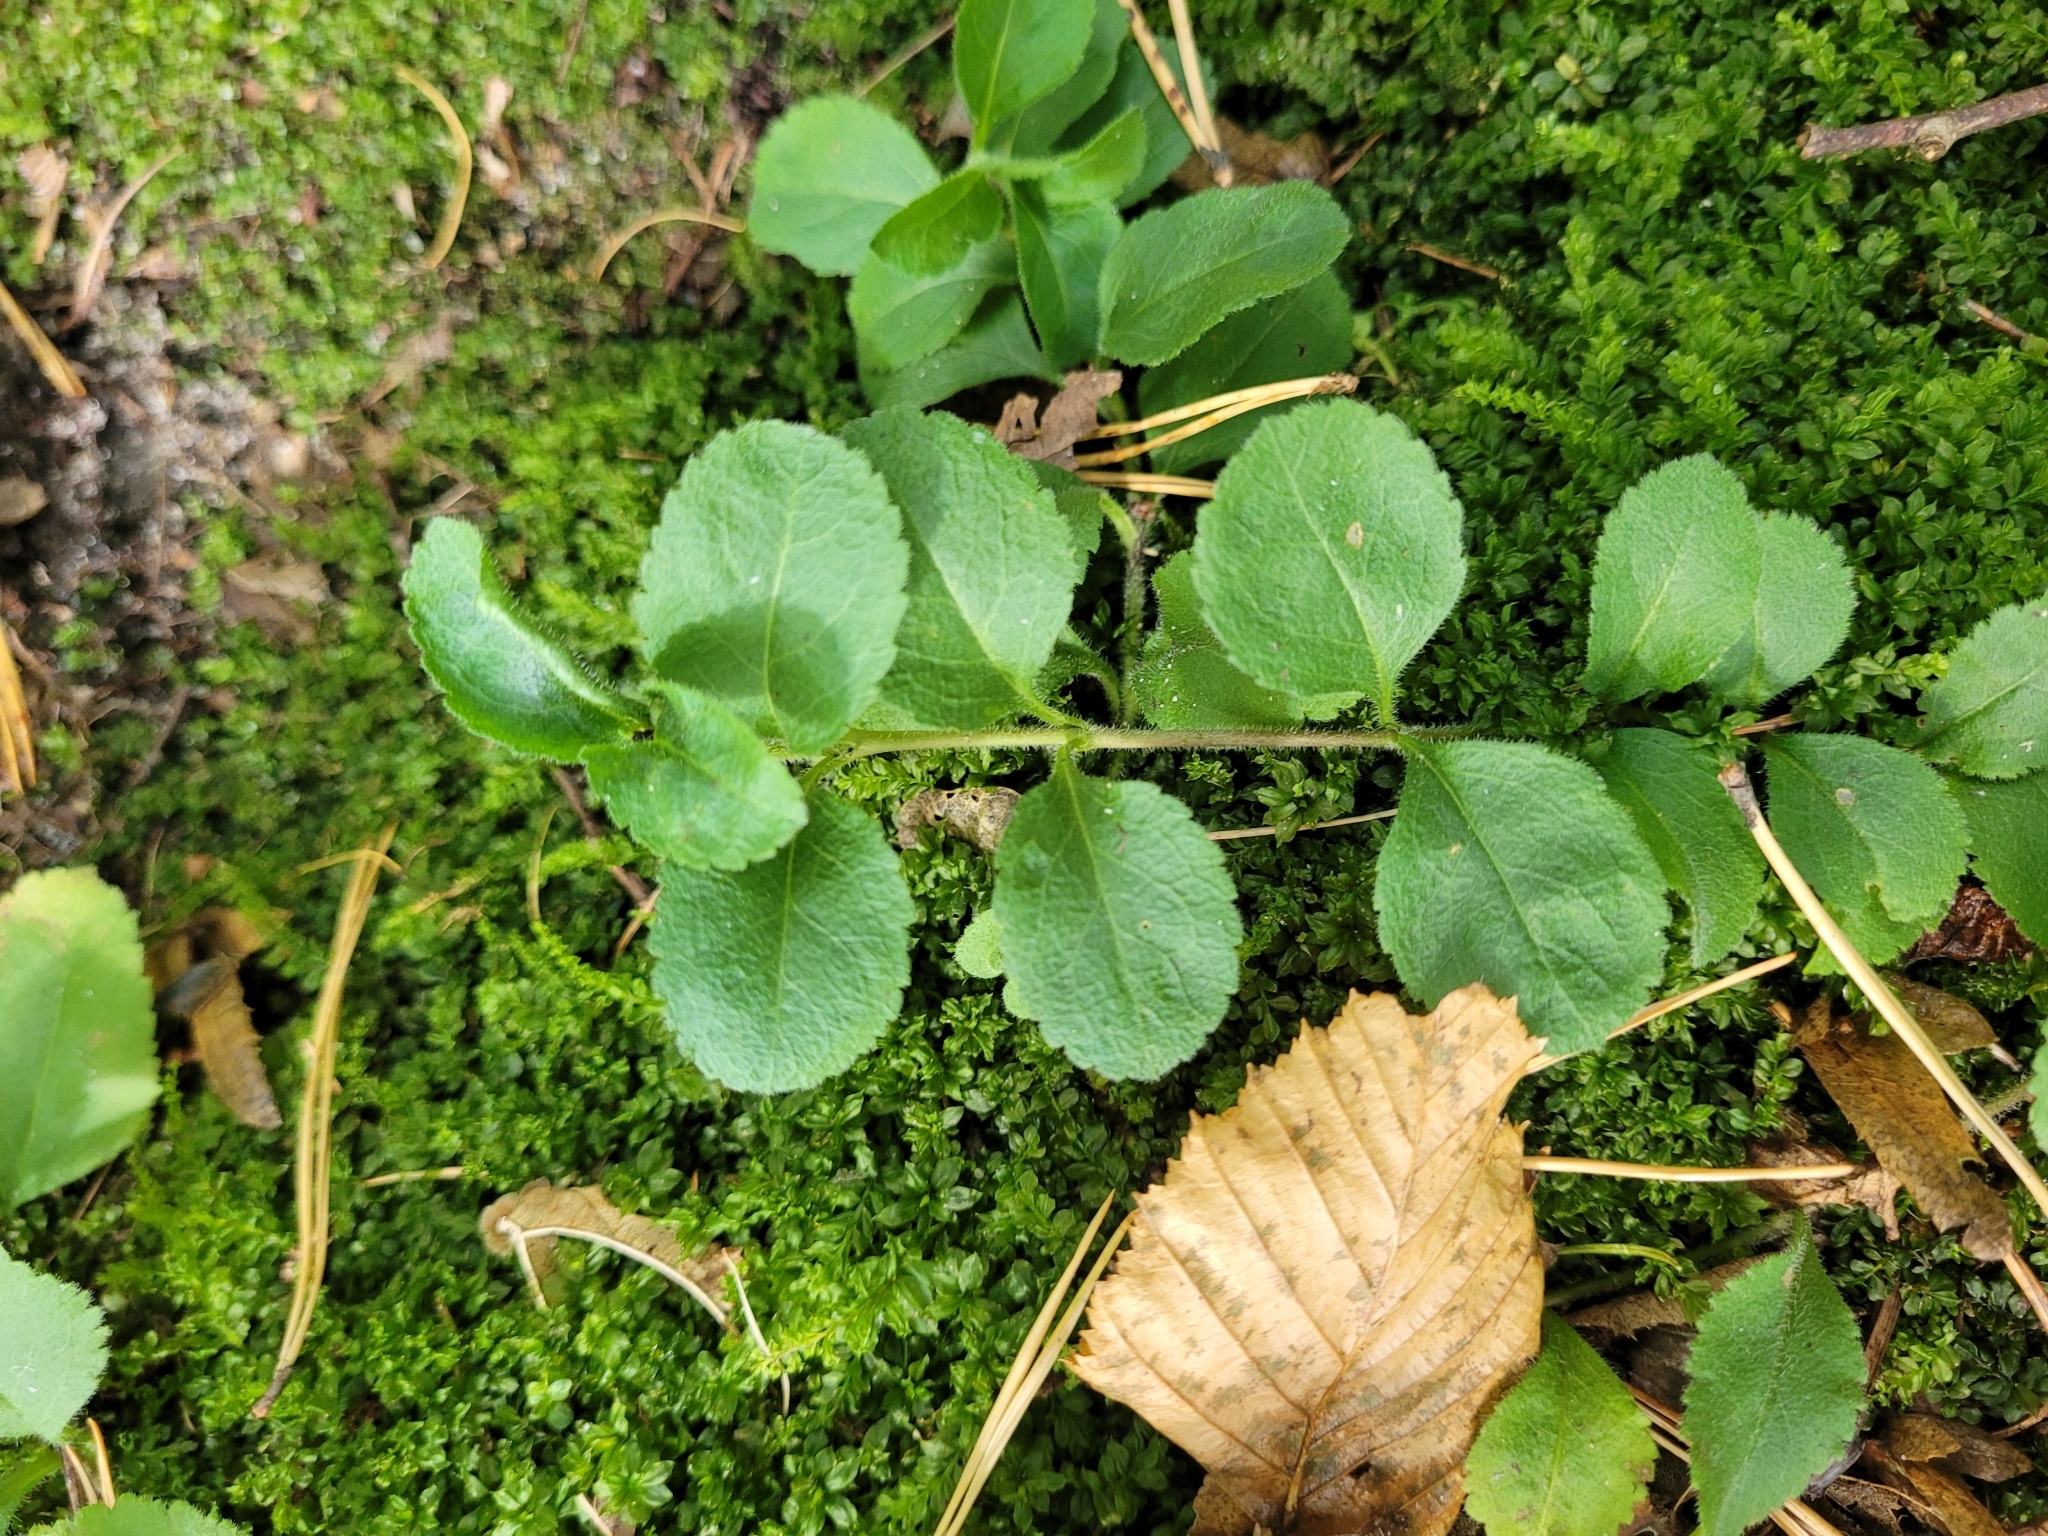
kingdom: Plantae
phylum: Tracheophyta
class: Magnoliopsida
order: Lamiales
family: Plantaginaceae
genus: Veronica
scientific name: Veronica officinalis
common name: Common speedwell
